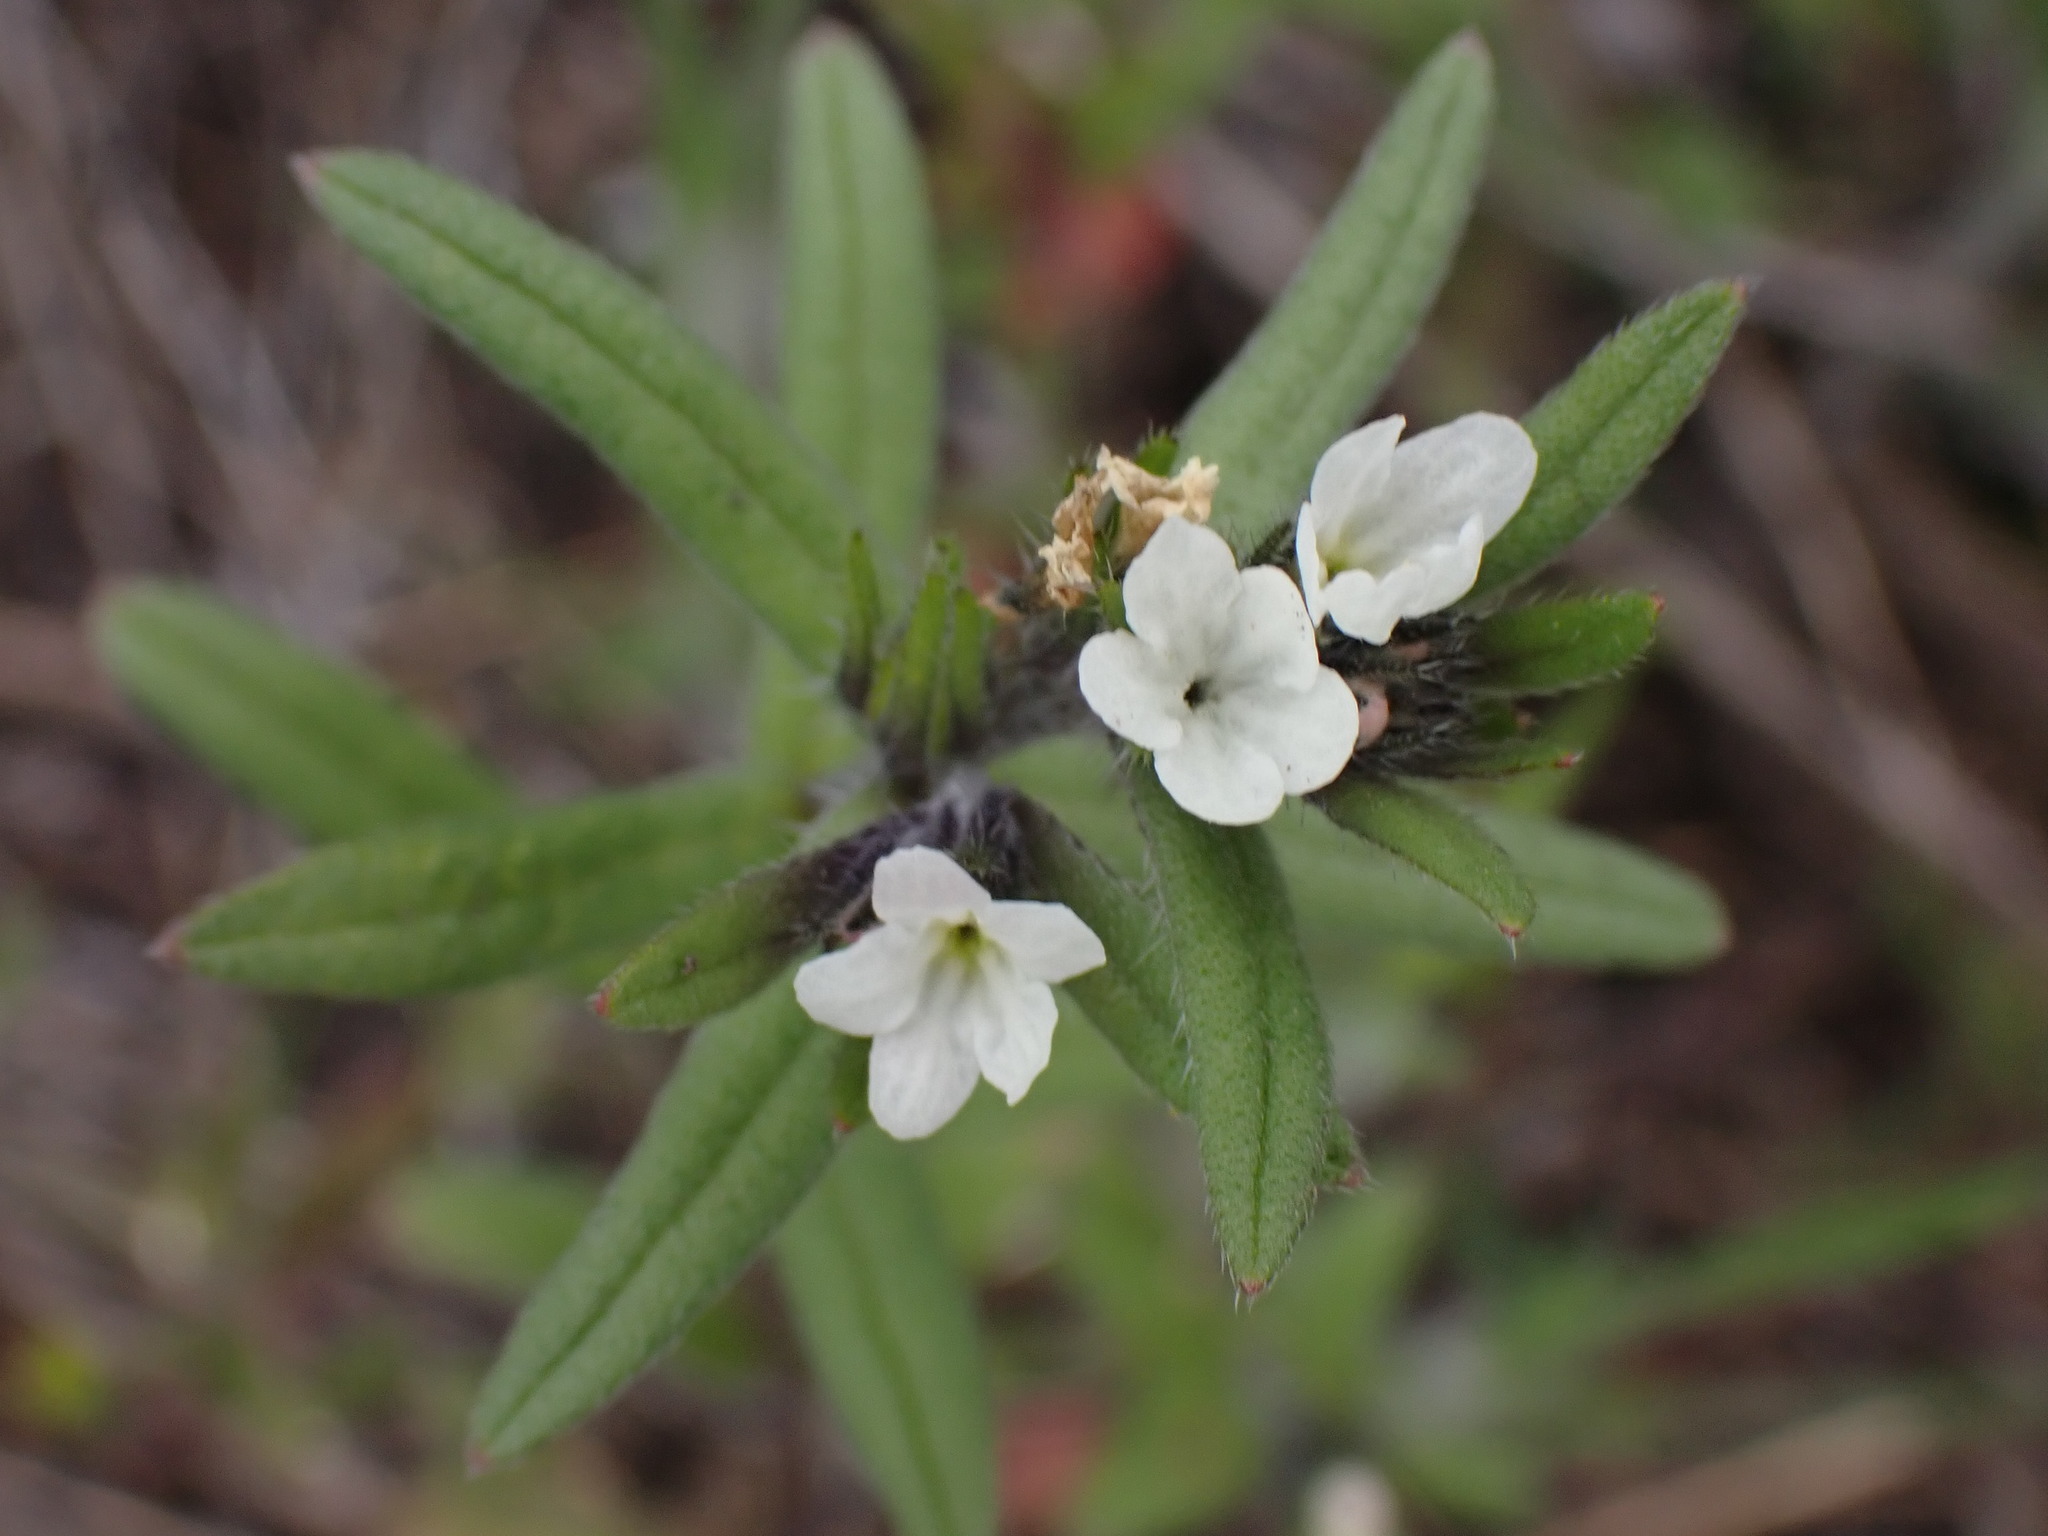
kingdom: Plantae
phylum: Tracheophyta
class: Magnoliopsida
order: Boraginales
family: Boraginaceae
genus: Buglossoides
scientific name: Buglossoides arvensis
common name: Corn gromwell
